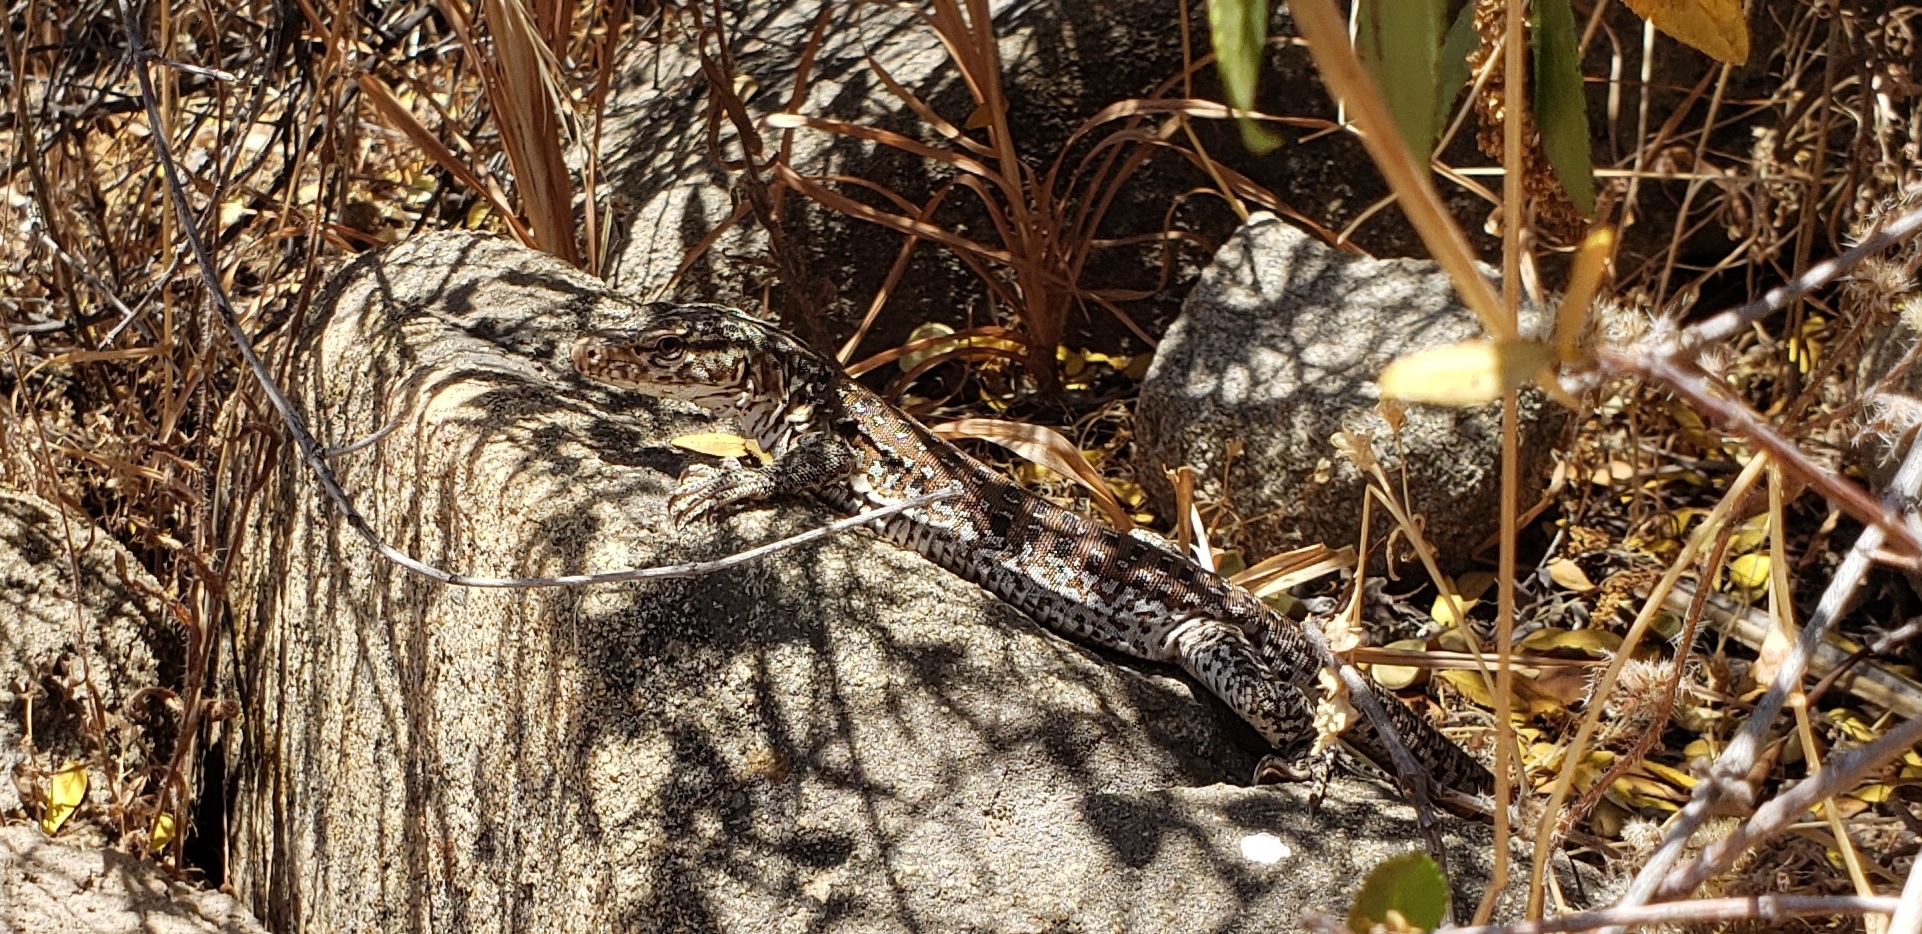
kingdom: Animalia
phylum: Chordata
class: Squamata
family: Teiidae
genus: Callopistes
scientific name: Callopistes maculatus
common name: Spotted false monitor
